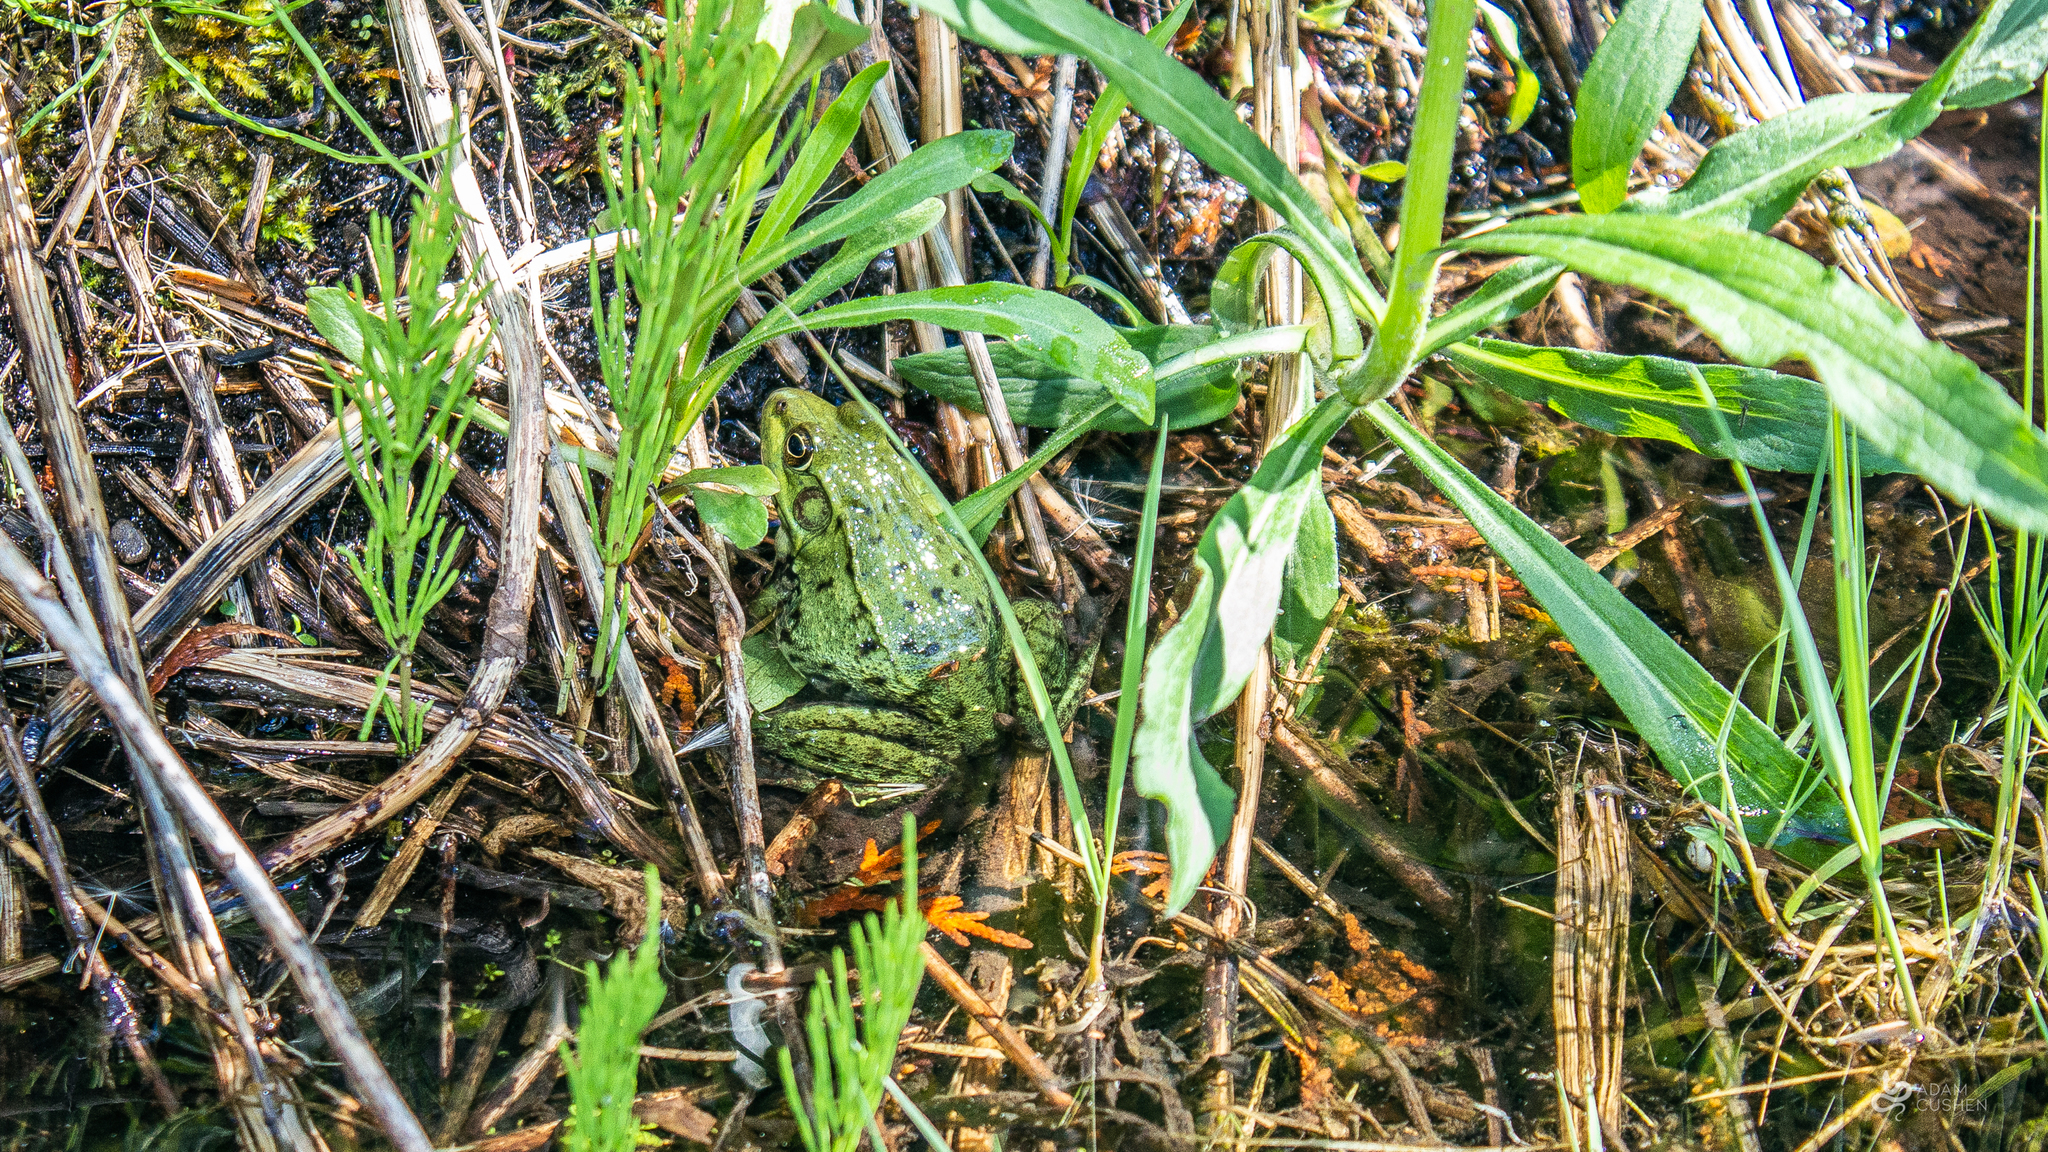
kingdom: Animalia
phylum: Chordata
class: Amphibia
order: Anura
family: Ranidae
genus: Lithobates
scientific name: Lithobates clamitans
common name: Green frog
